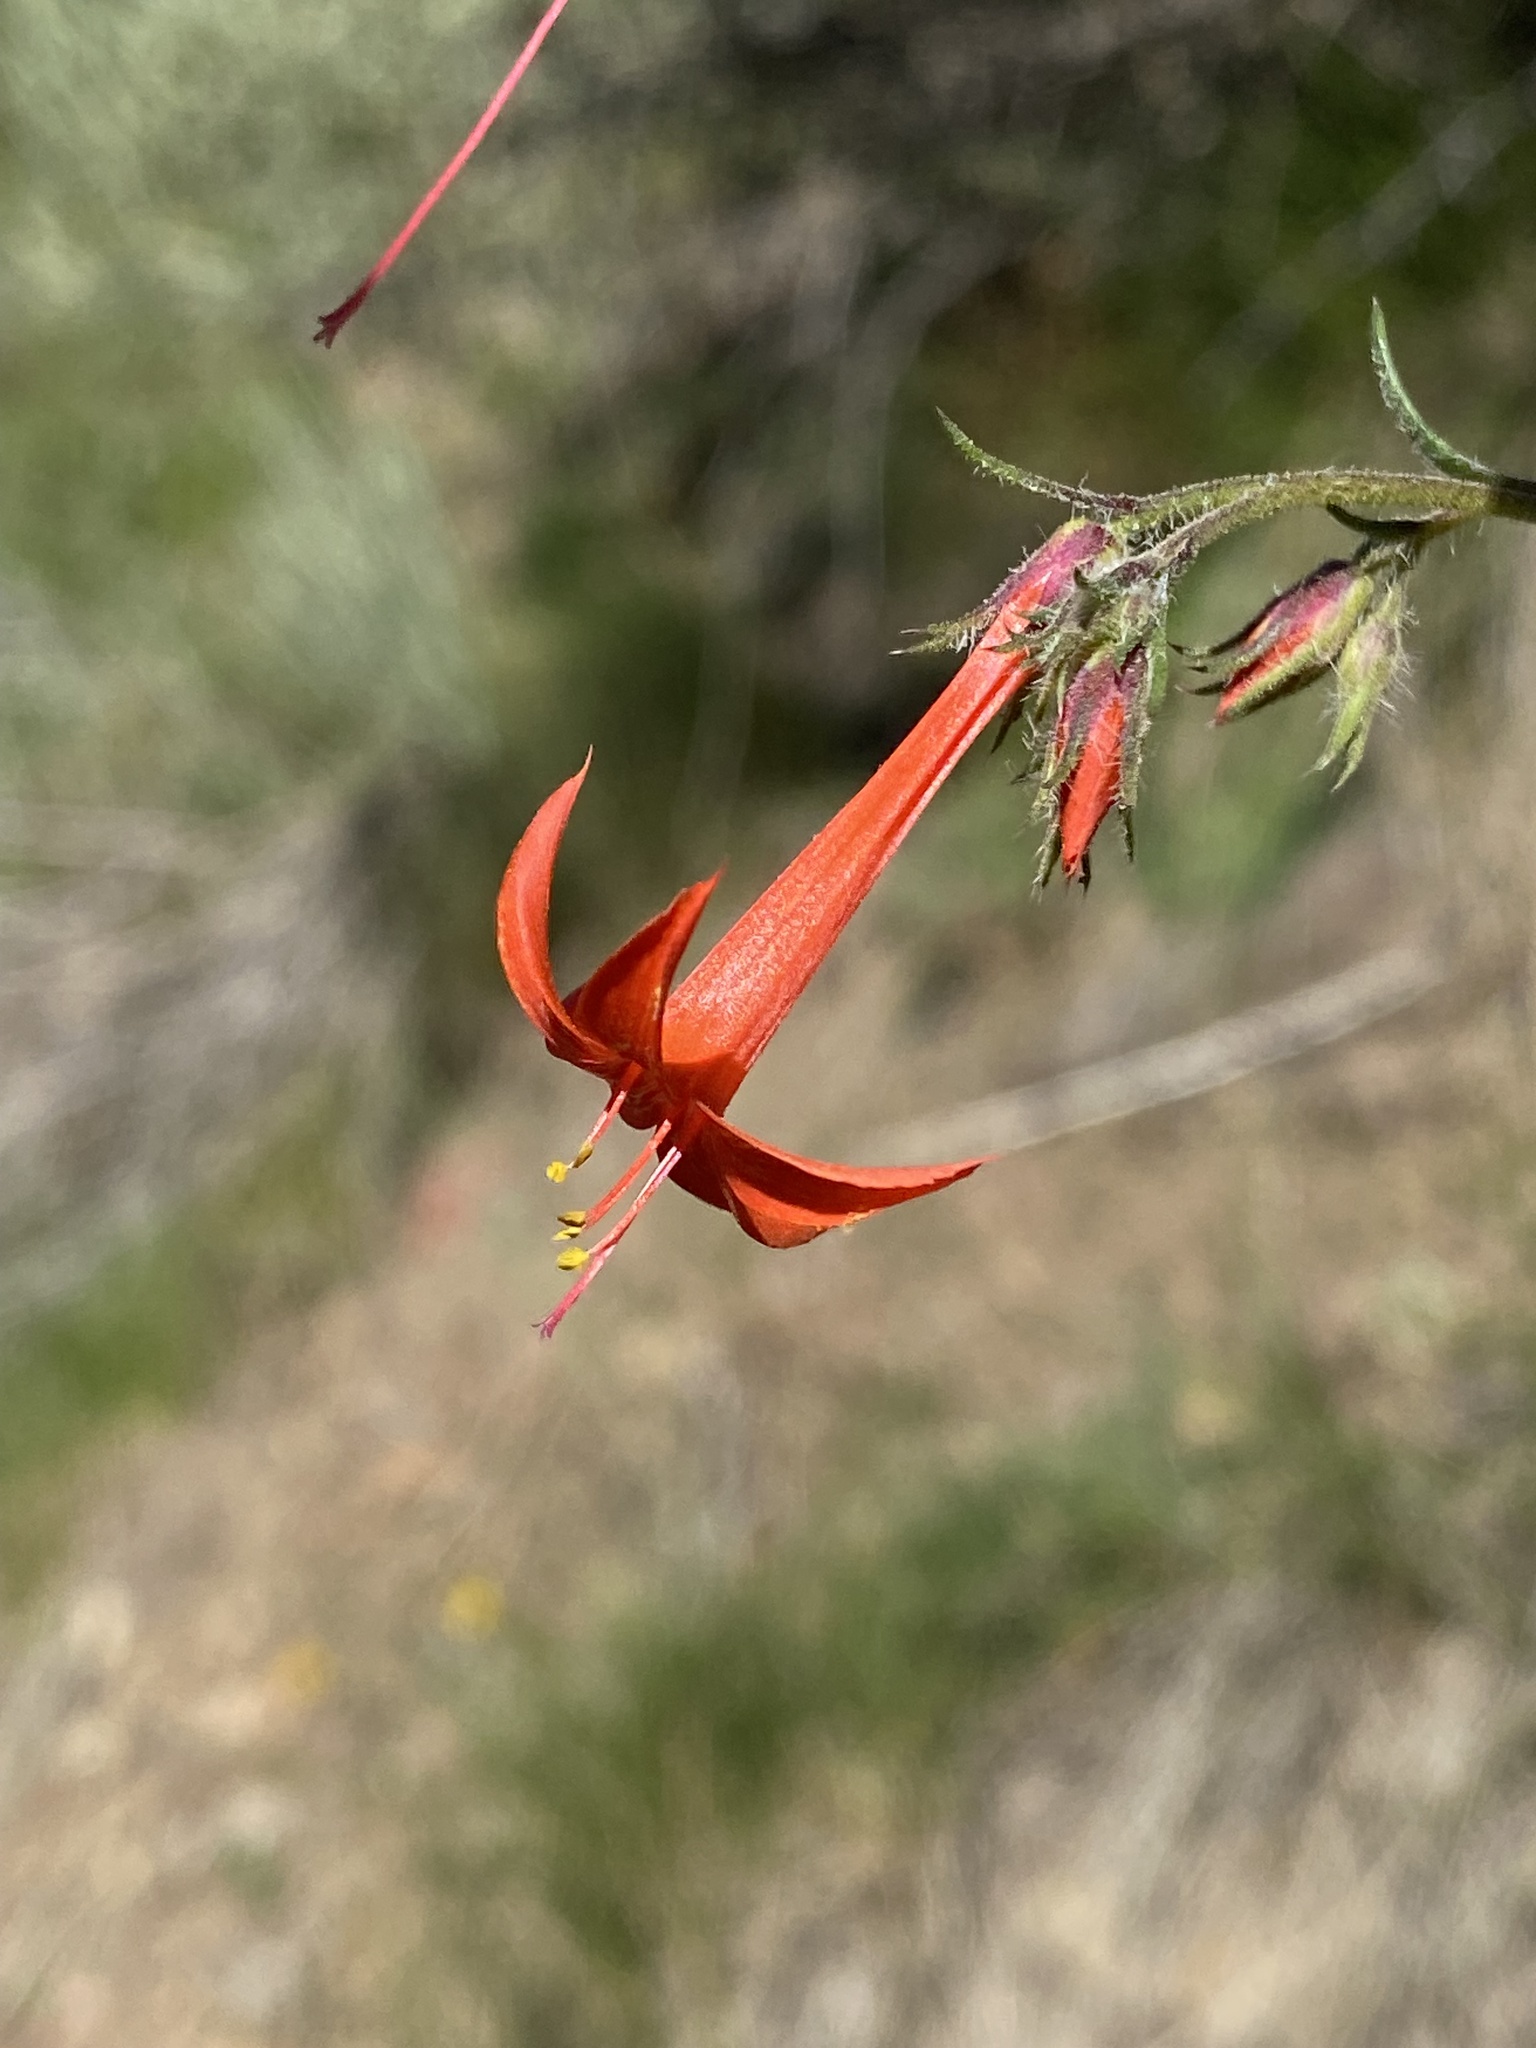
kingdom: Plantae
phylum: Tracheophyta
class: Magnoliopsida
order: Ericales
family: Polemoniaceae
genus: Ipomopsis
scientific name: Ipomopsis aggregata
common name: Scarlet gilia
